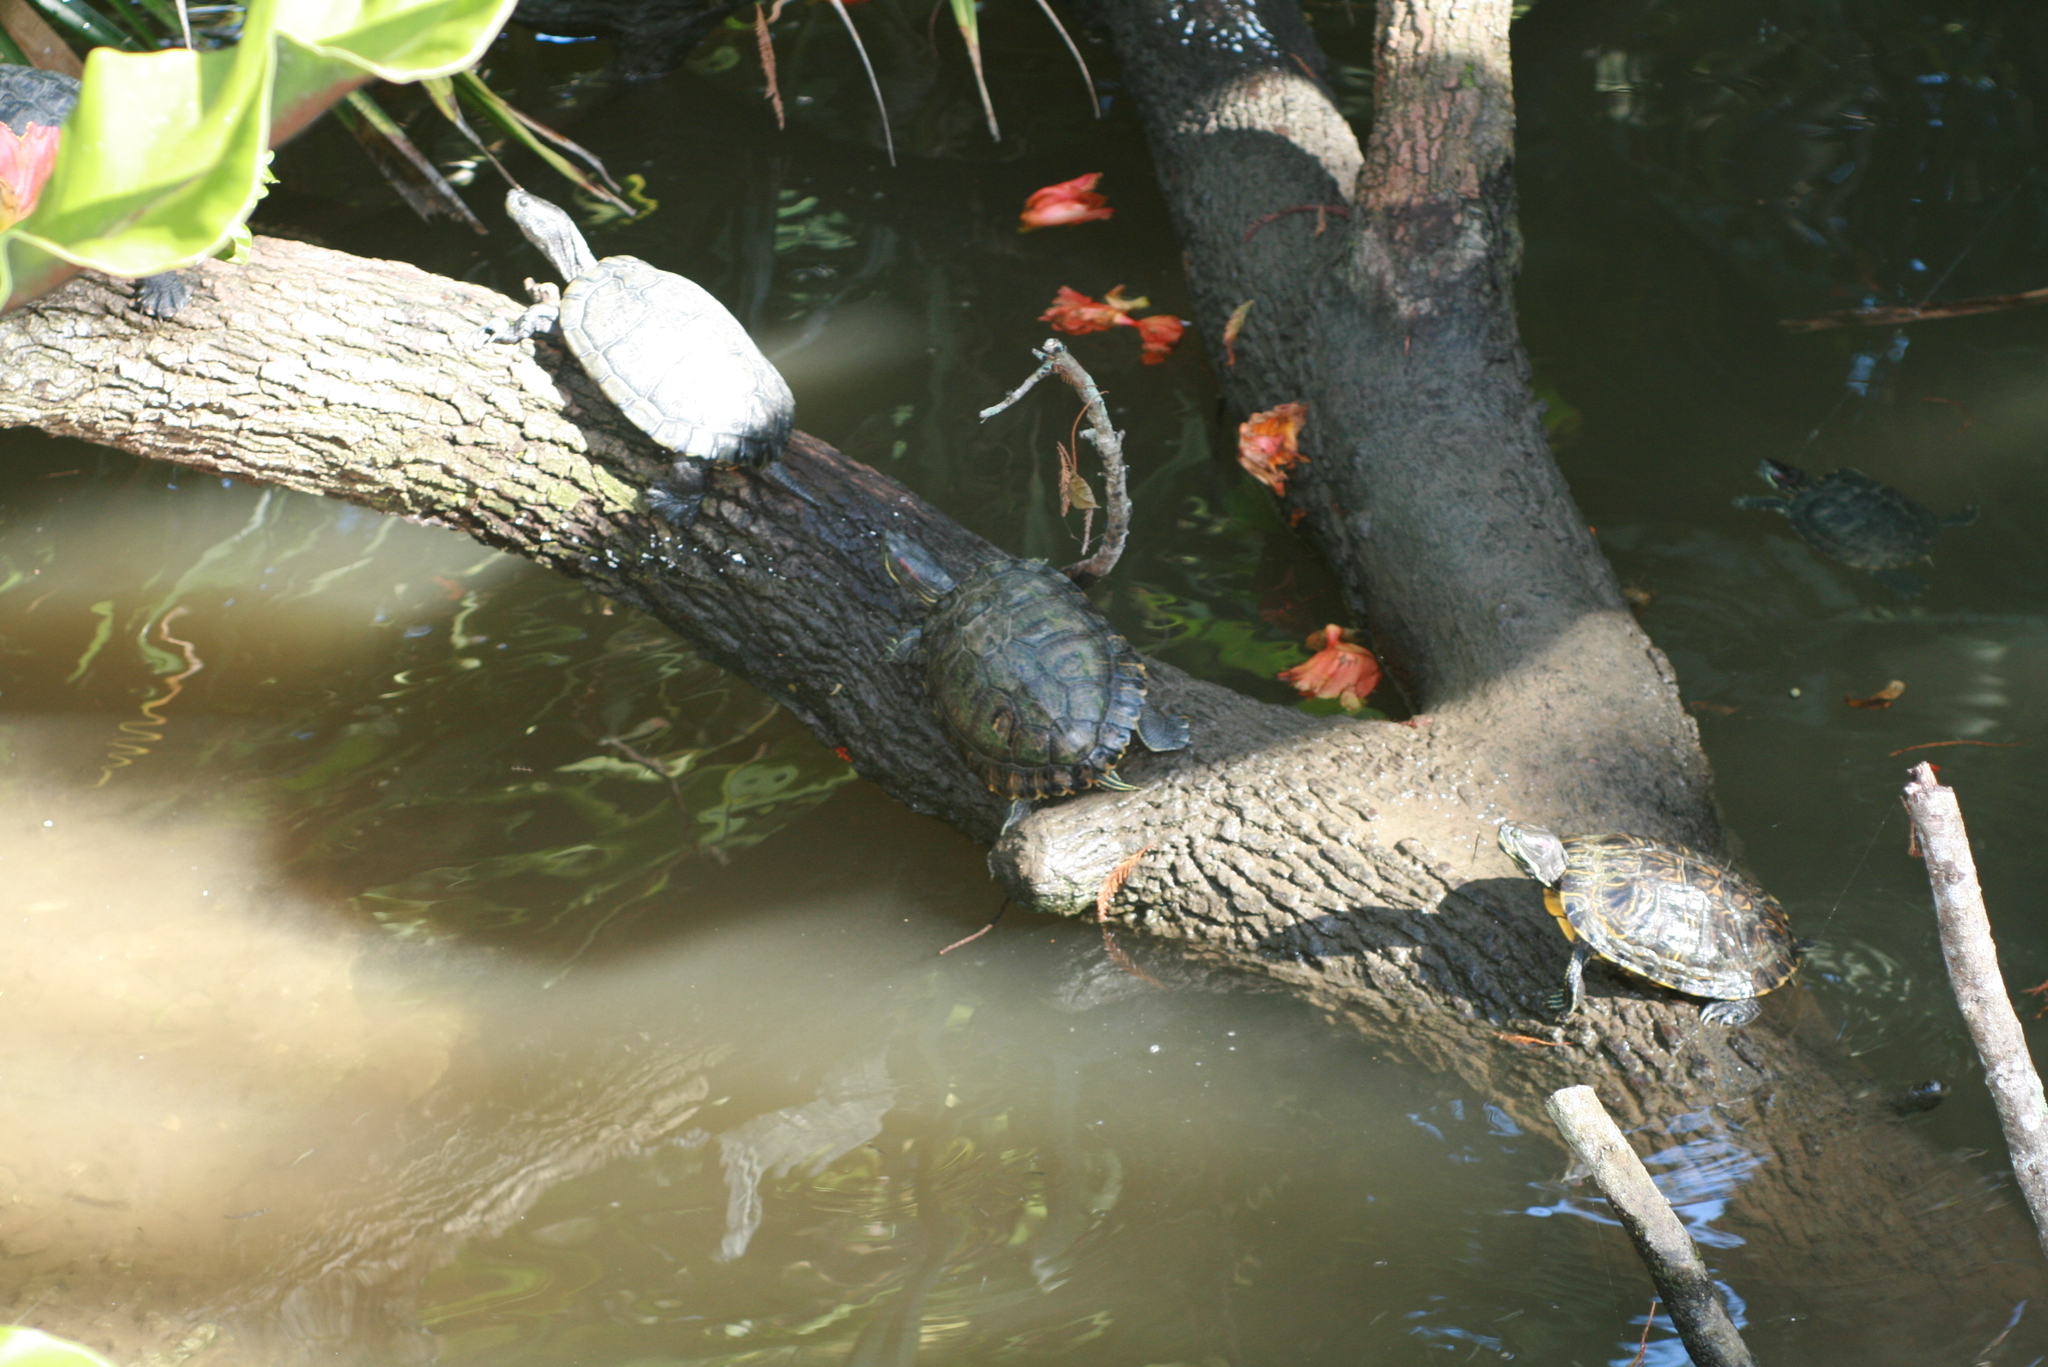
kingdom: Animalia
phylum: Chordata
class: Testudines
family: Emydidae
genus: Trachemys
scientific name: Trachemys scripta
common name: Slider
